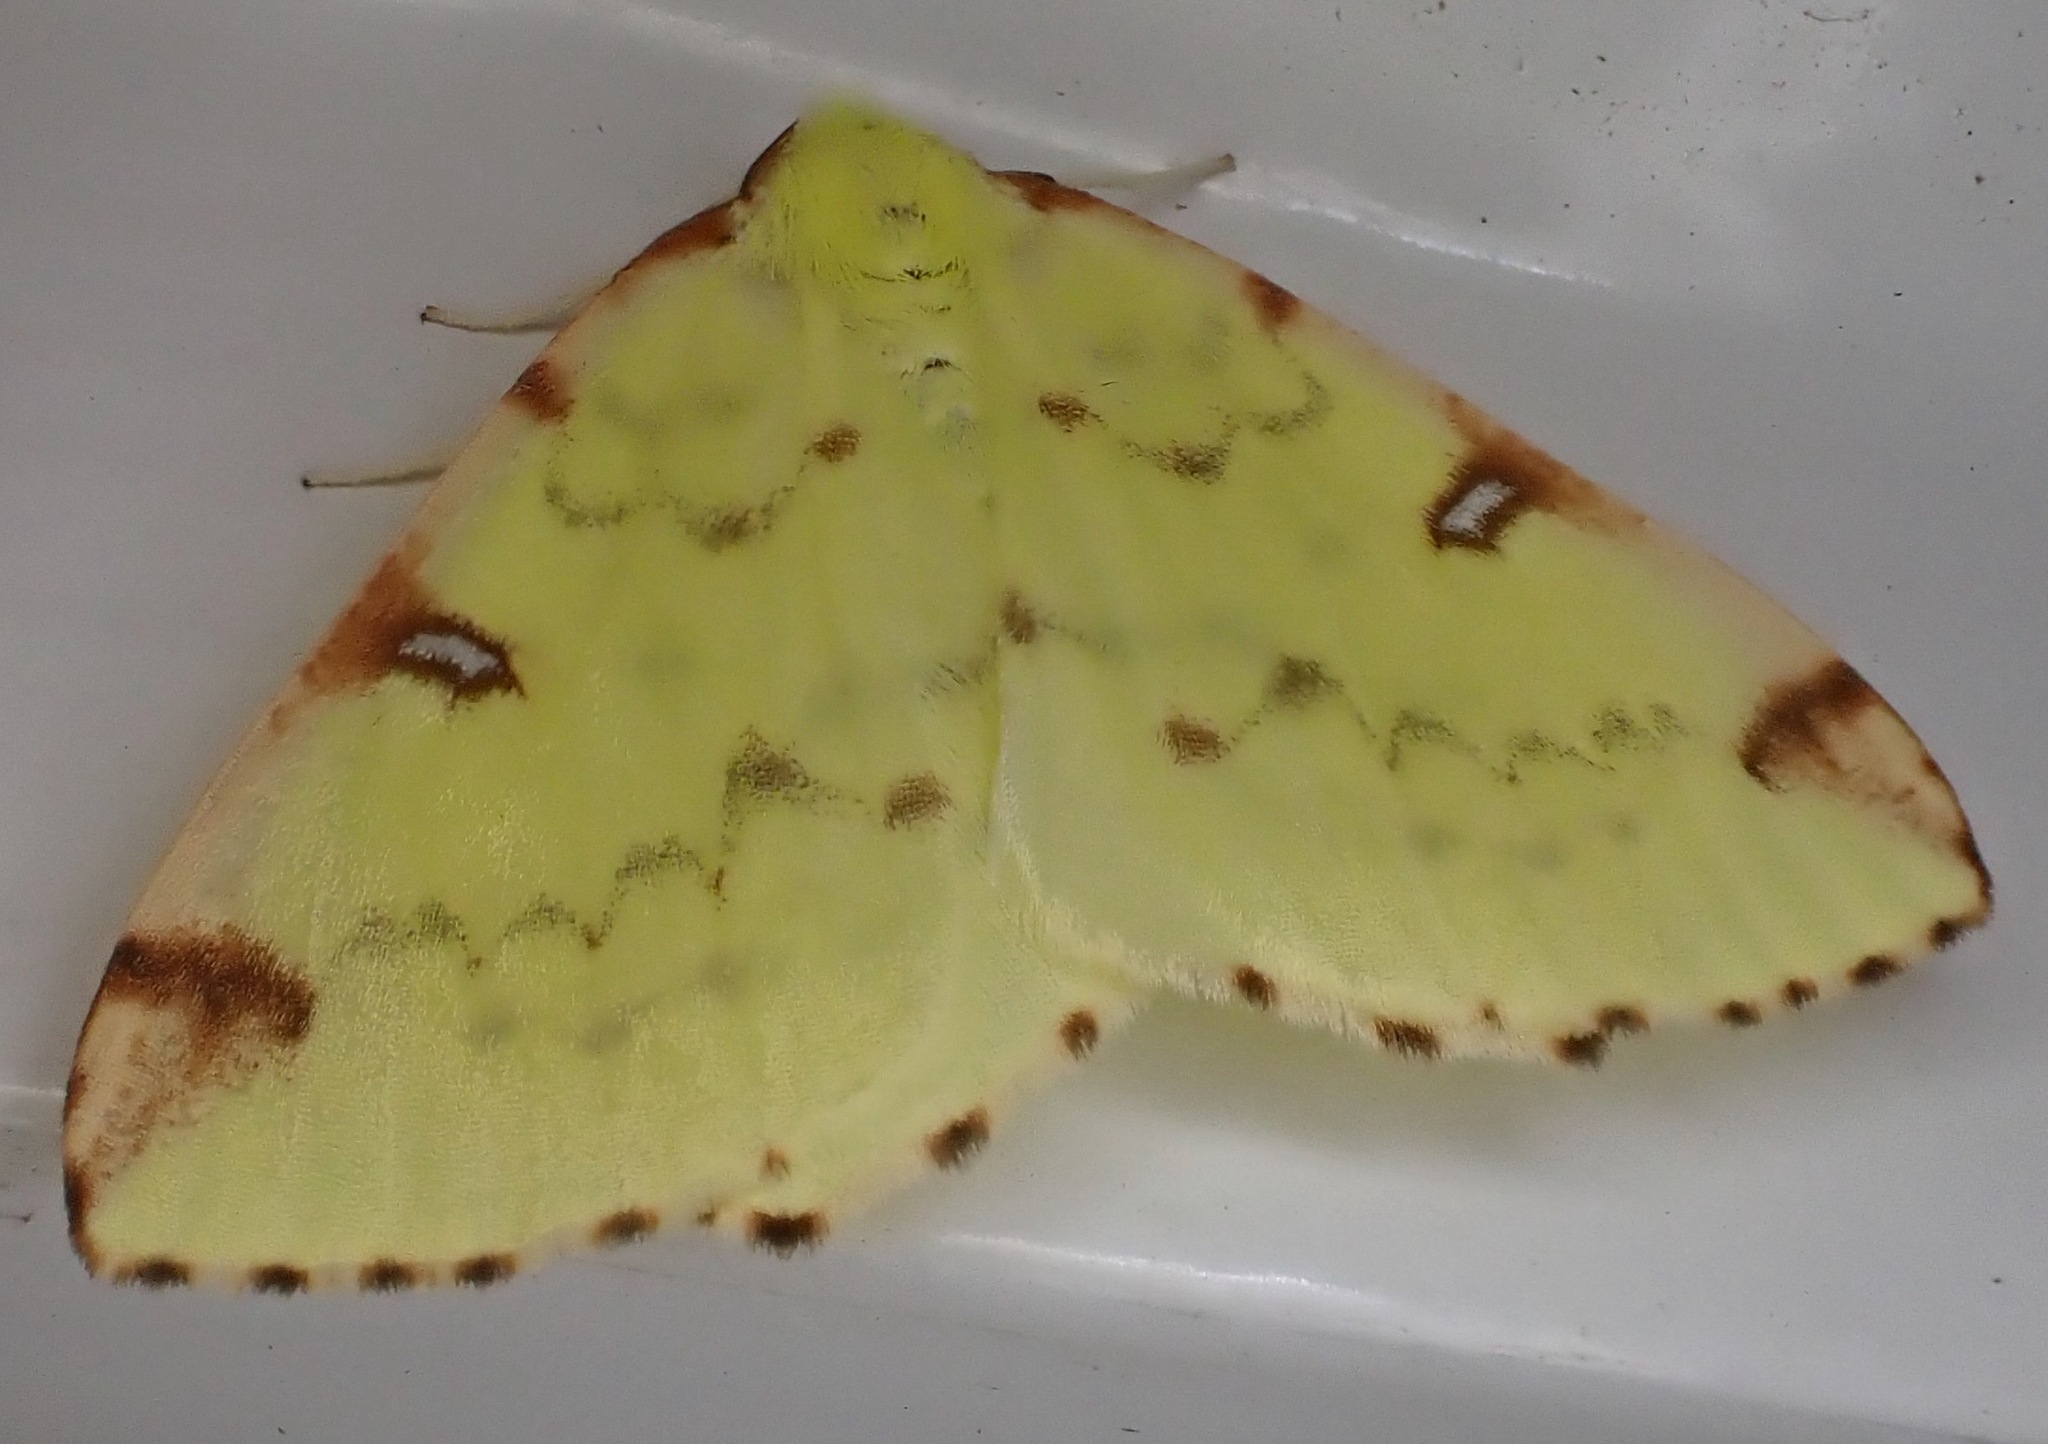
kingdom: Animalia
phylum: Arthropoda
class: Insecta
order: Lepidoptera
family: Geometridae
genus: Opisthograptis
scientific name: Opisthograptis luteolata
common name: Brimstone moth
